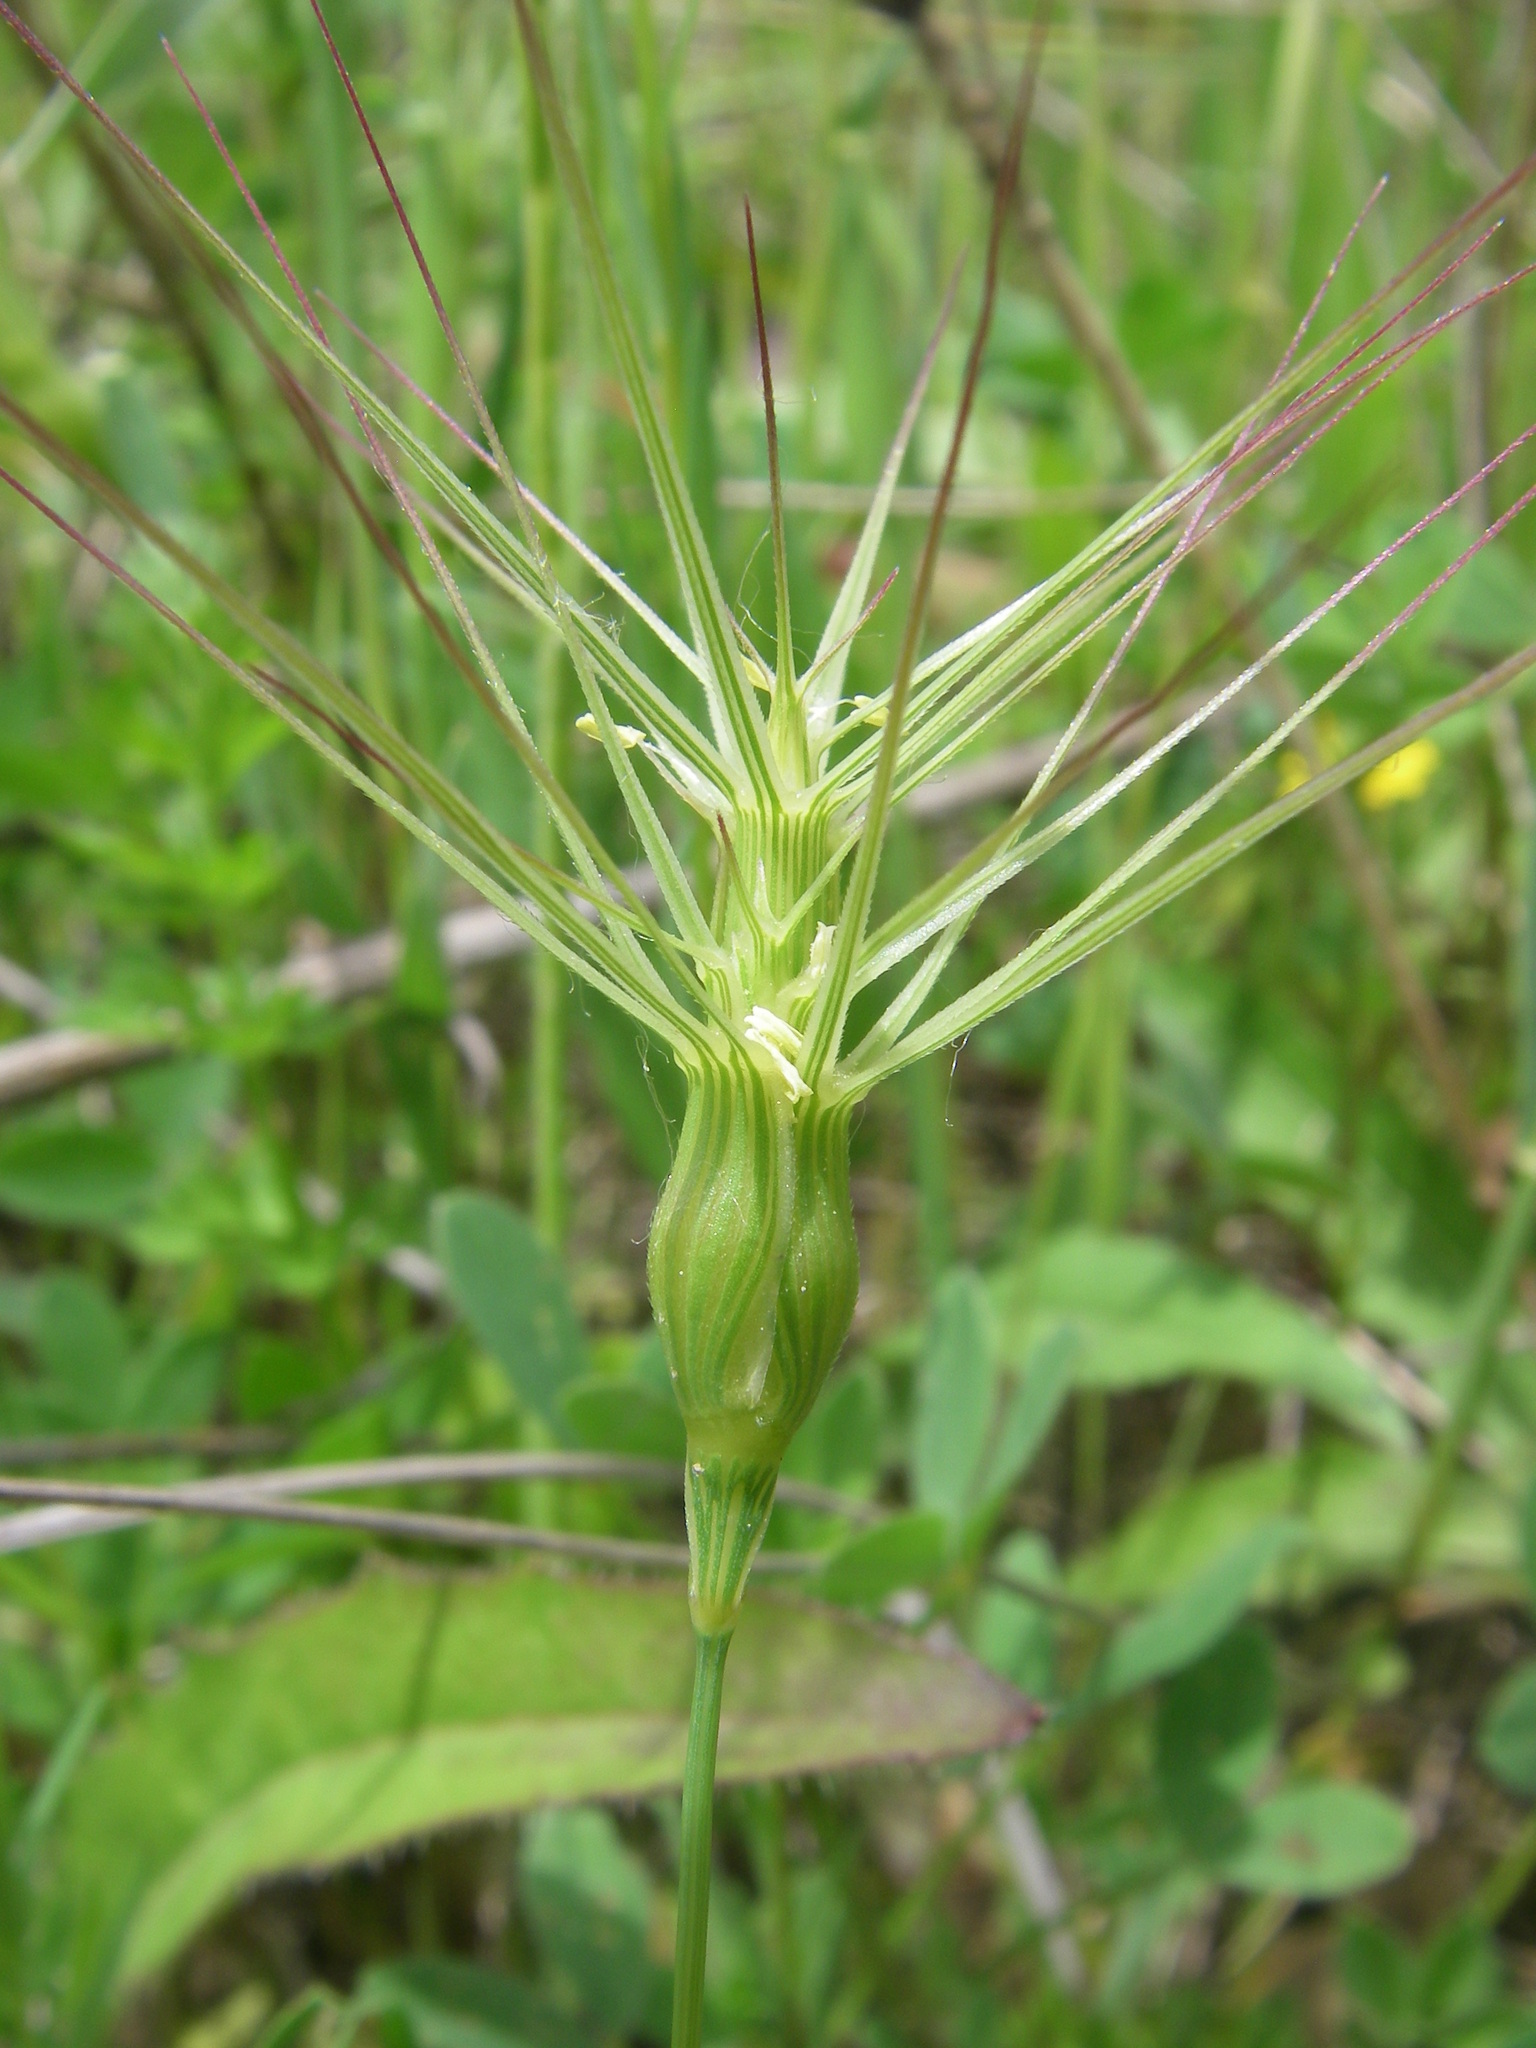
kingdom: Plantae
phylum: Tracheophyta
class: Liliopsida
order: Poales
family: Poaceae
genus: Aegilops
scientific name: Aegilops geniculata
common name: Ovate goat grass
